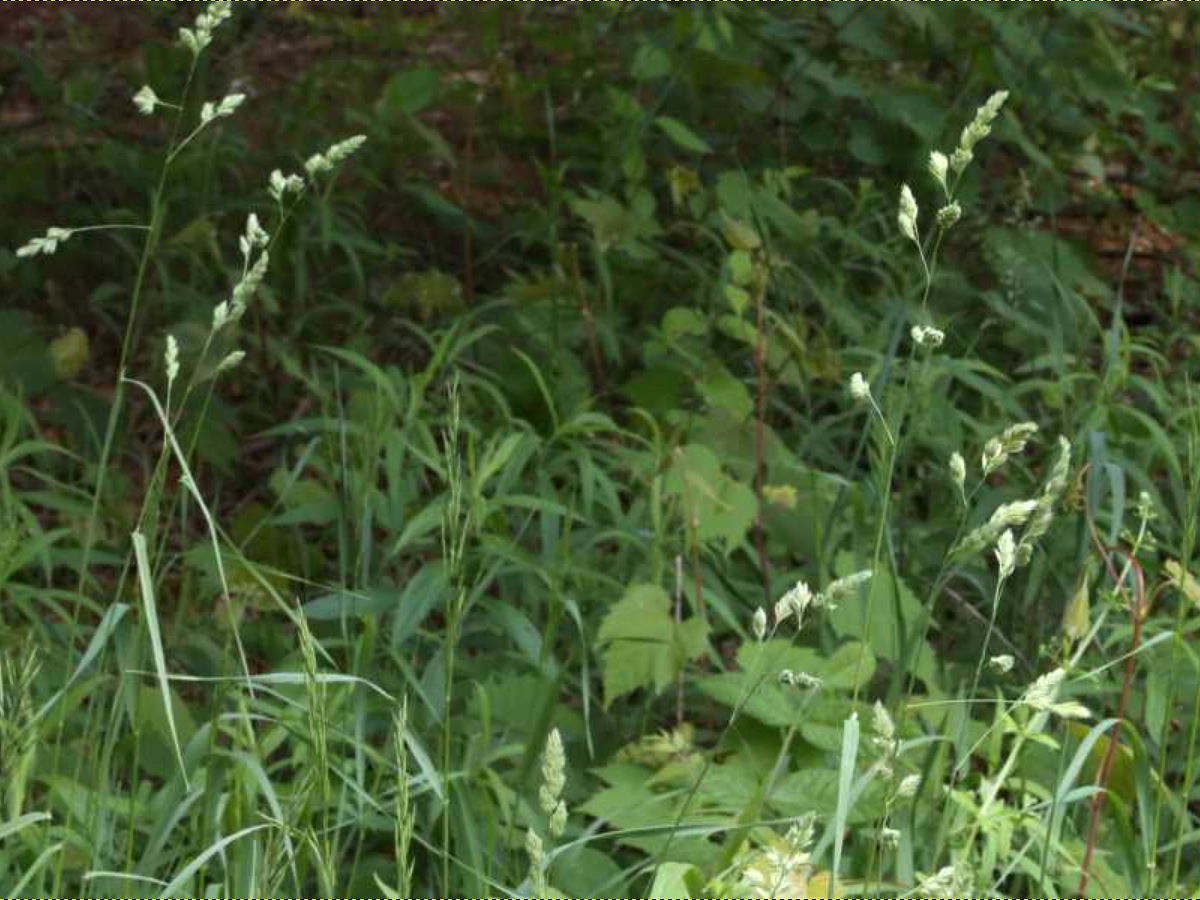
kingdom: Plantae
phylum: Tracheophyta
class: Liliopsida
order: Poales
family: Poaceae
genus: Dactylis
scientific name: Dactylis glomerata
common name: Orchardgrass
